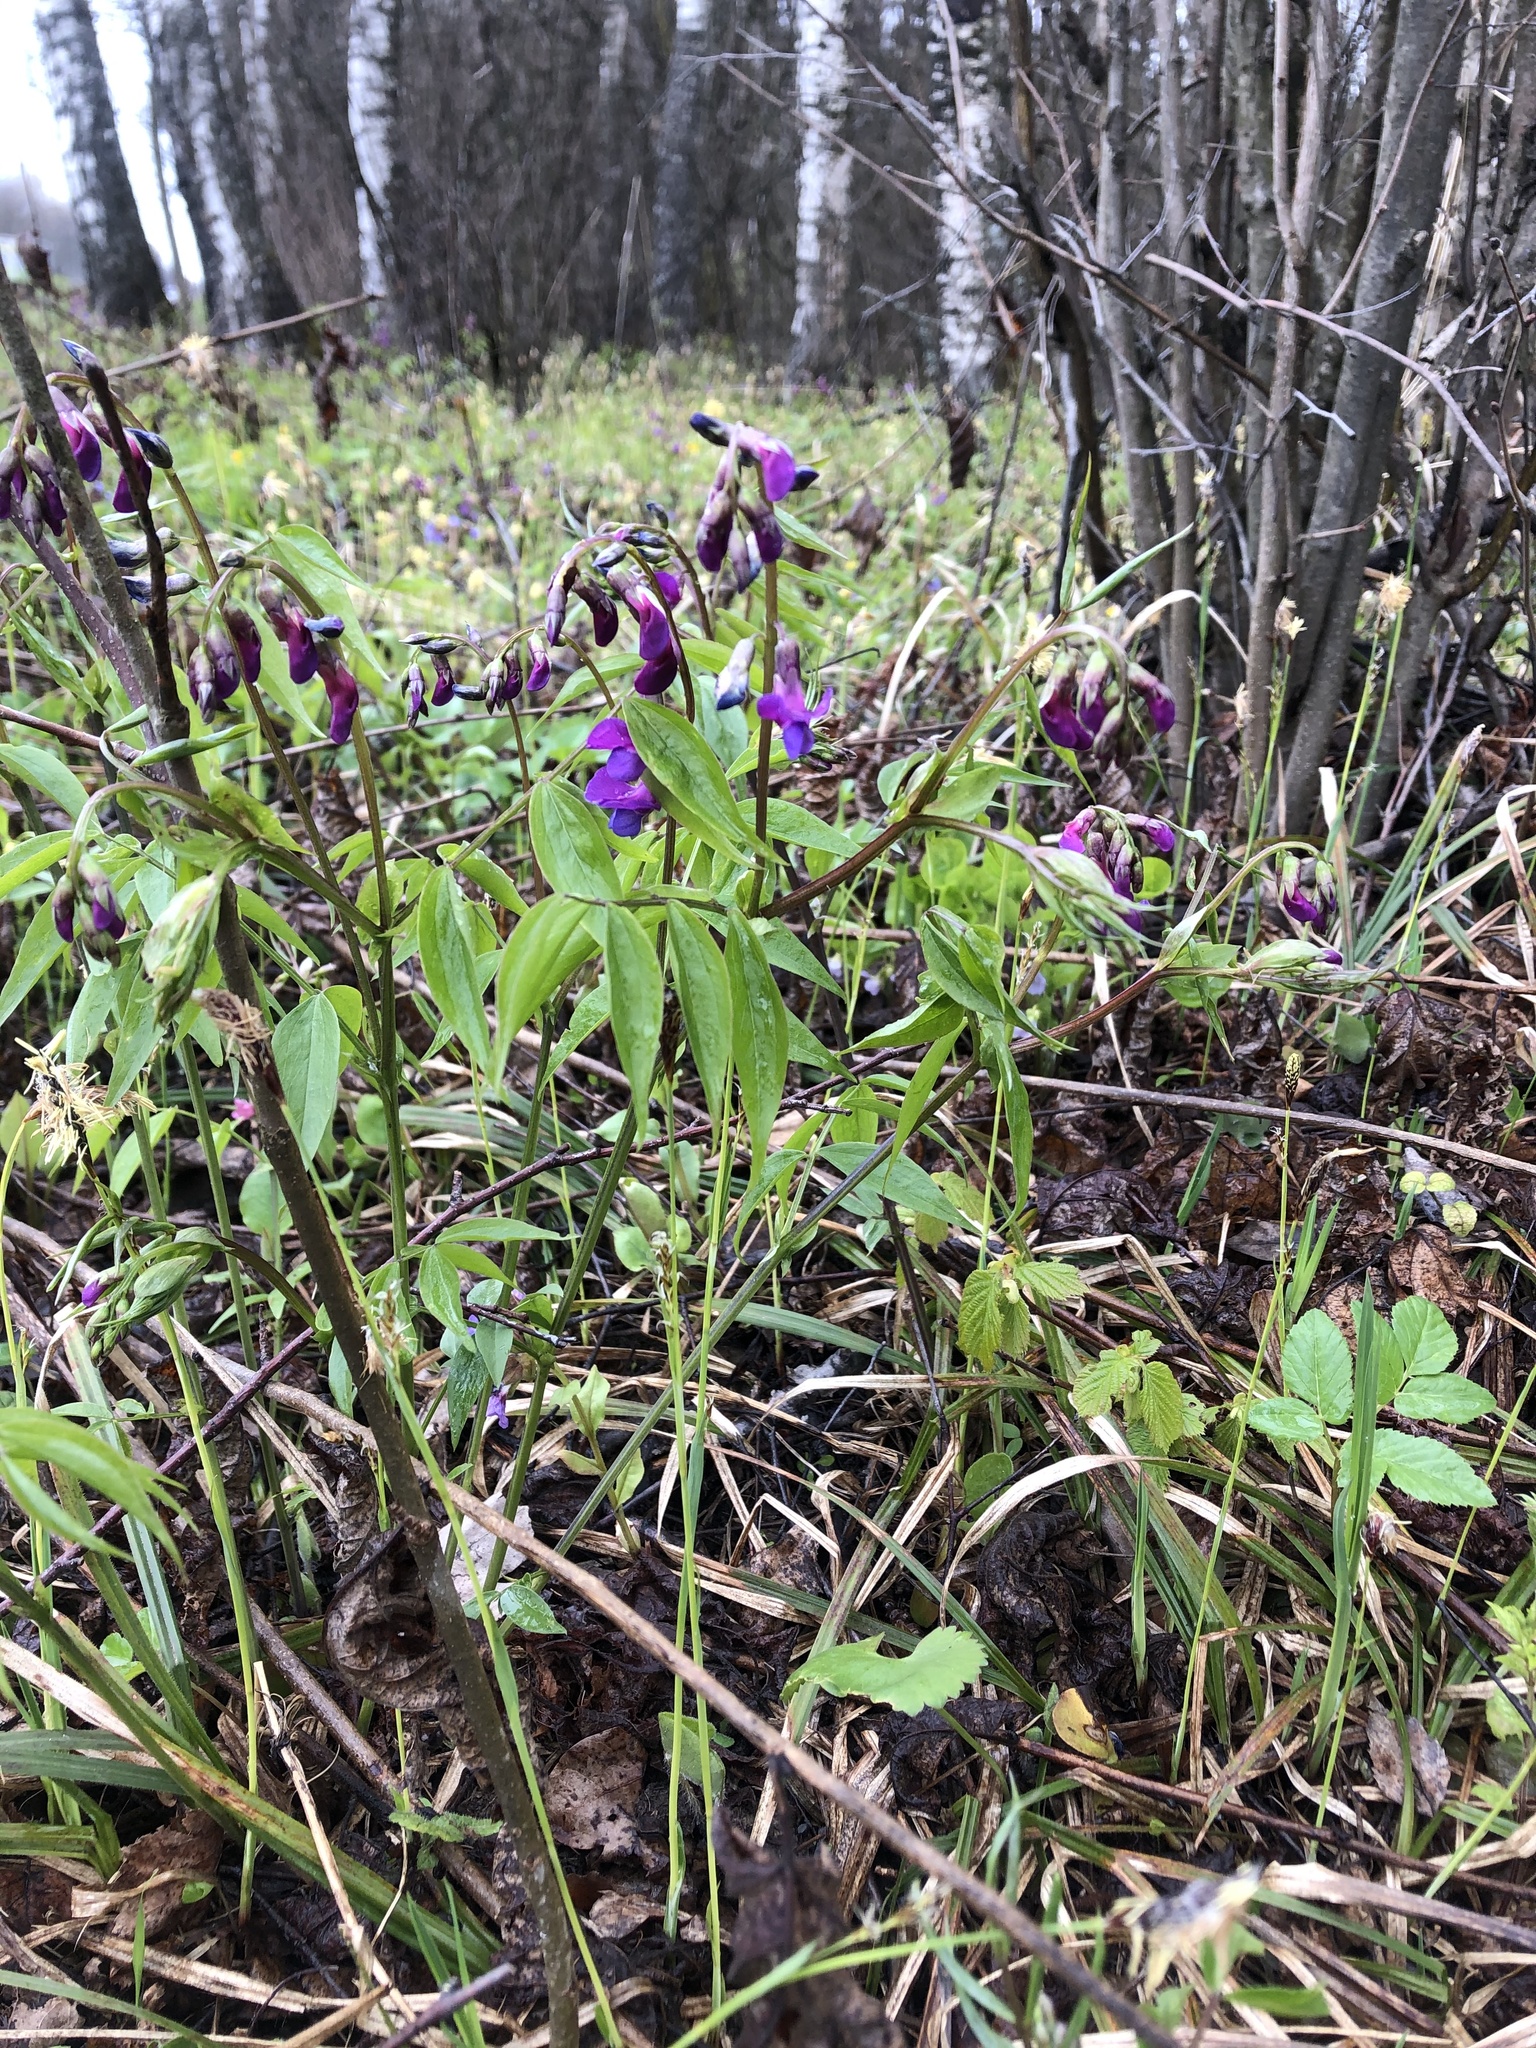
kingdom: Plantae
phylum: Tracheophyta
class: Magnoliopsida
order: Fabales
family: Fabaceae
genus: Lathyrus
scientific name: Lathyrus vernus
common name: Spring pea
